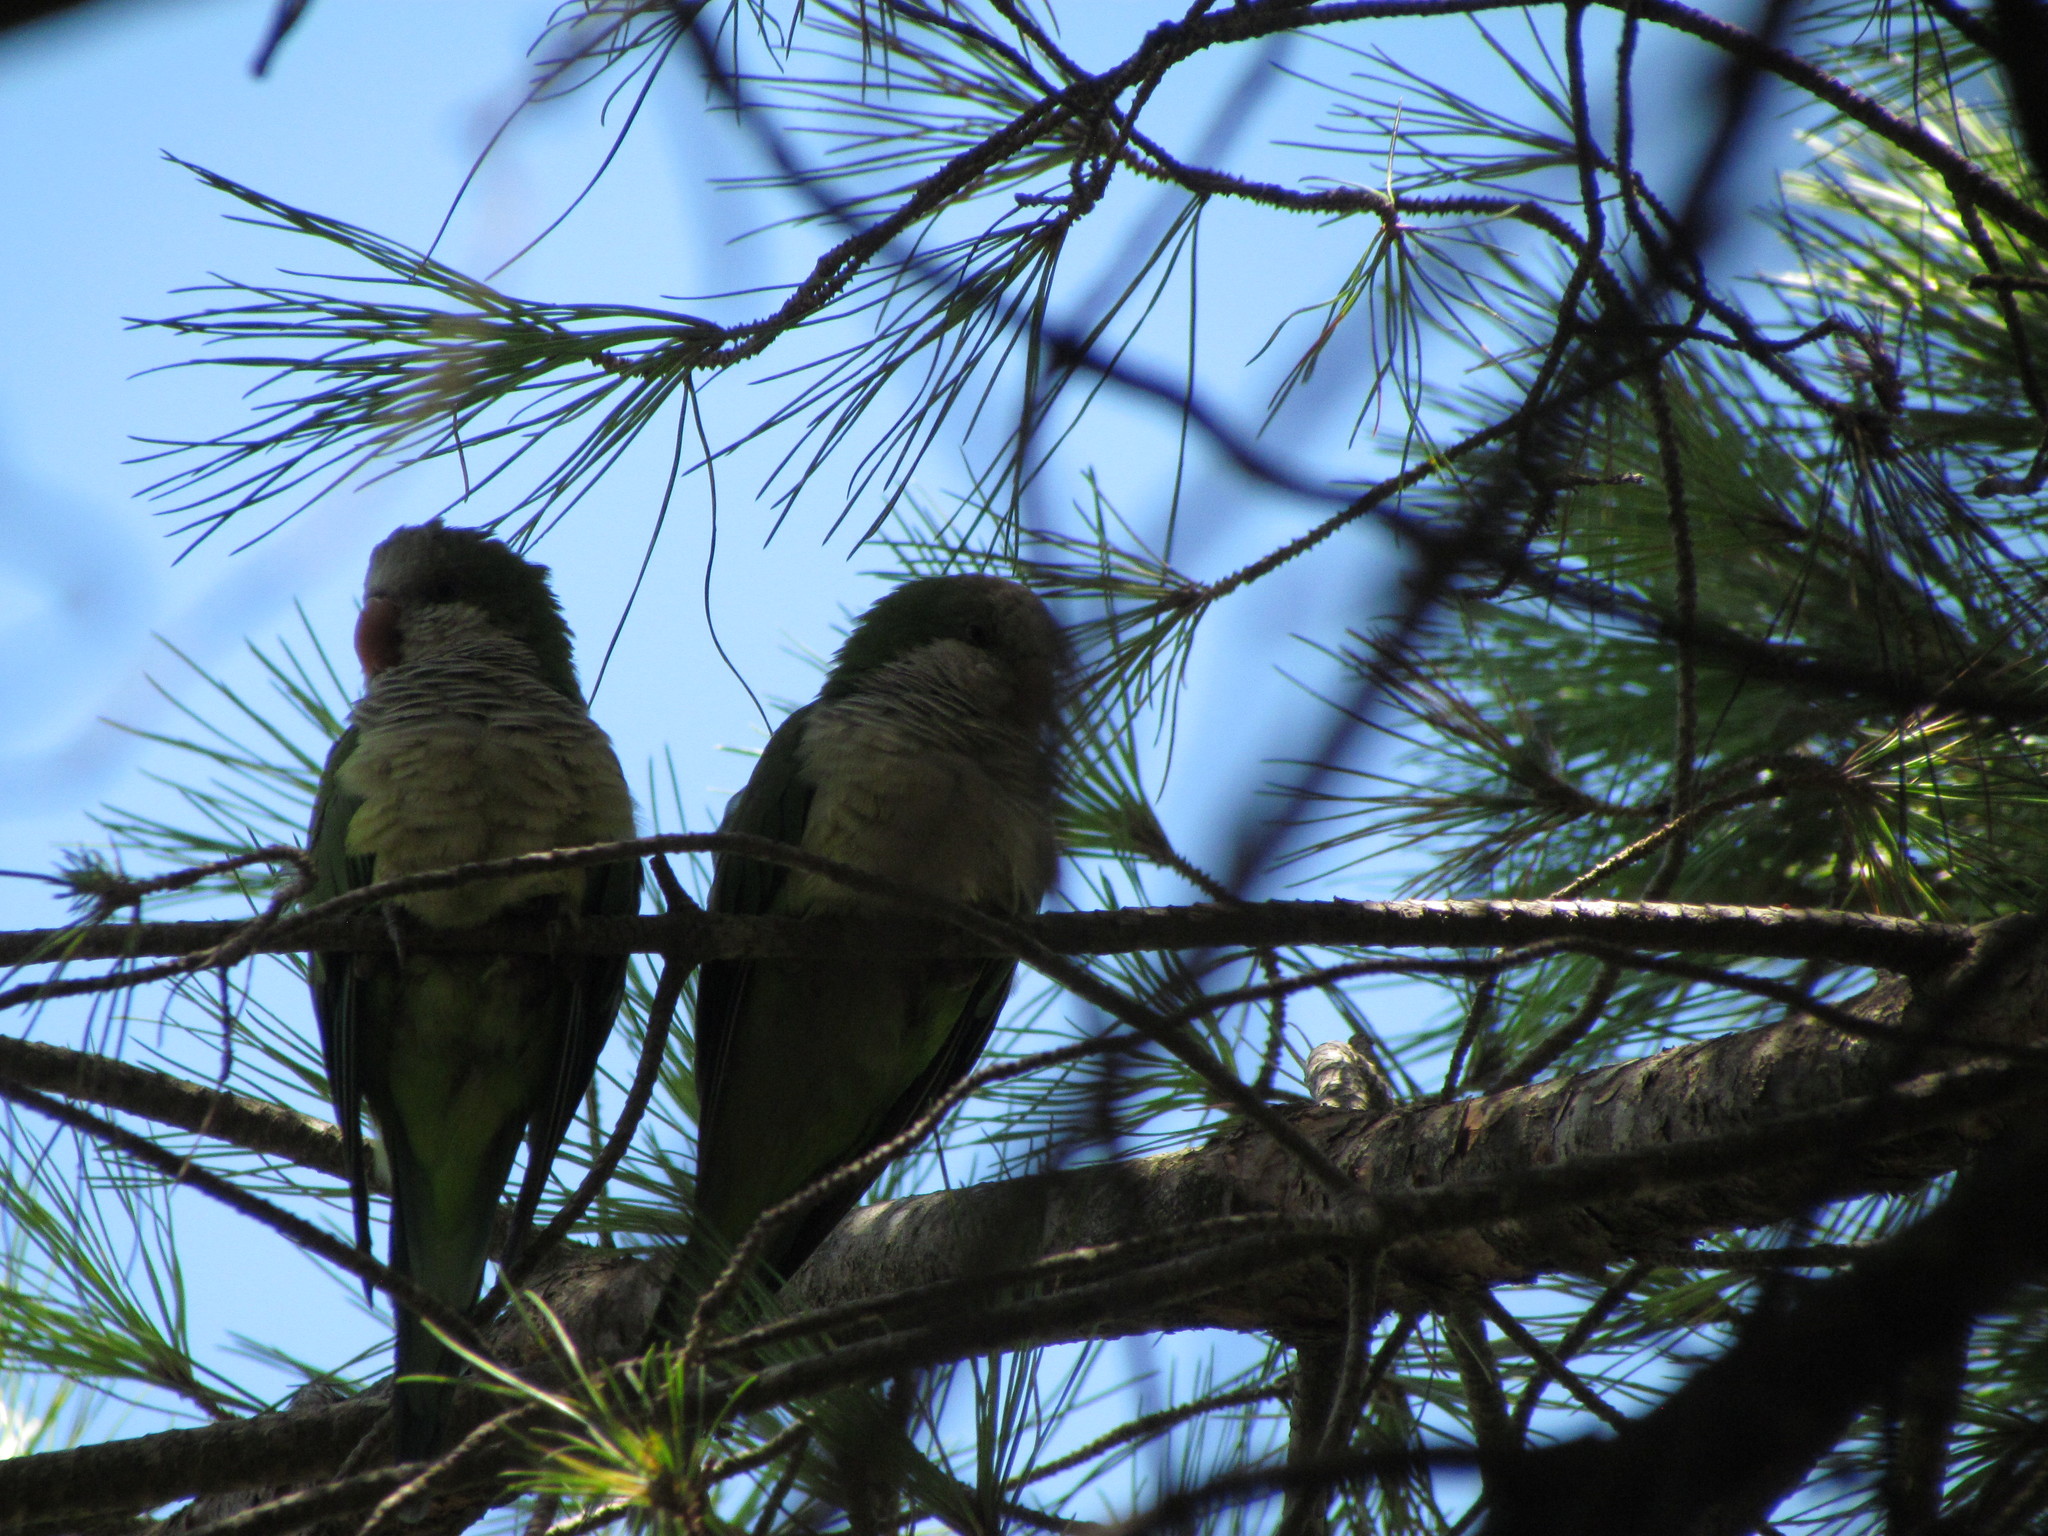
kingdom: Animalia
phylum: Chordata
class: Aves
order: Psittaciformes
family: Psittacidae
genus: Myiopsitta
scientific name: Myiopsitta monachus
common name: Monk parakeet
